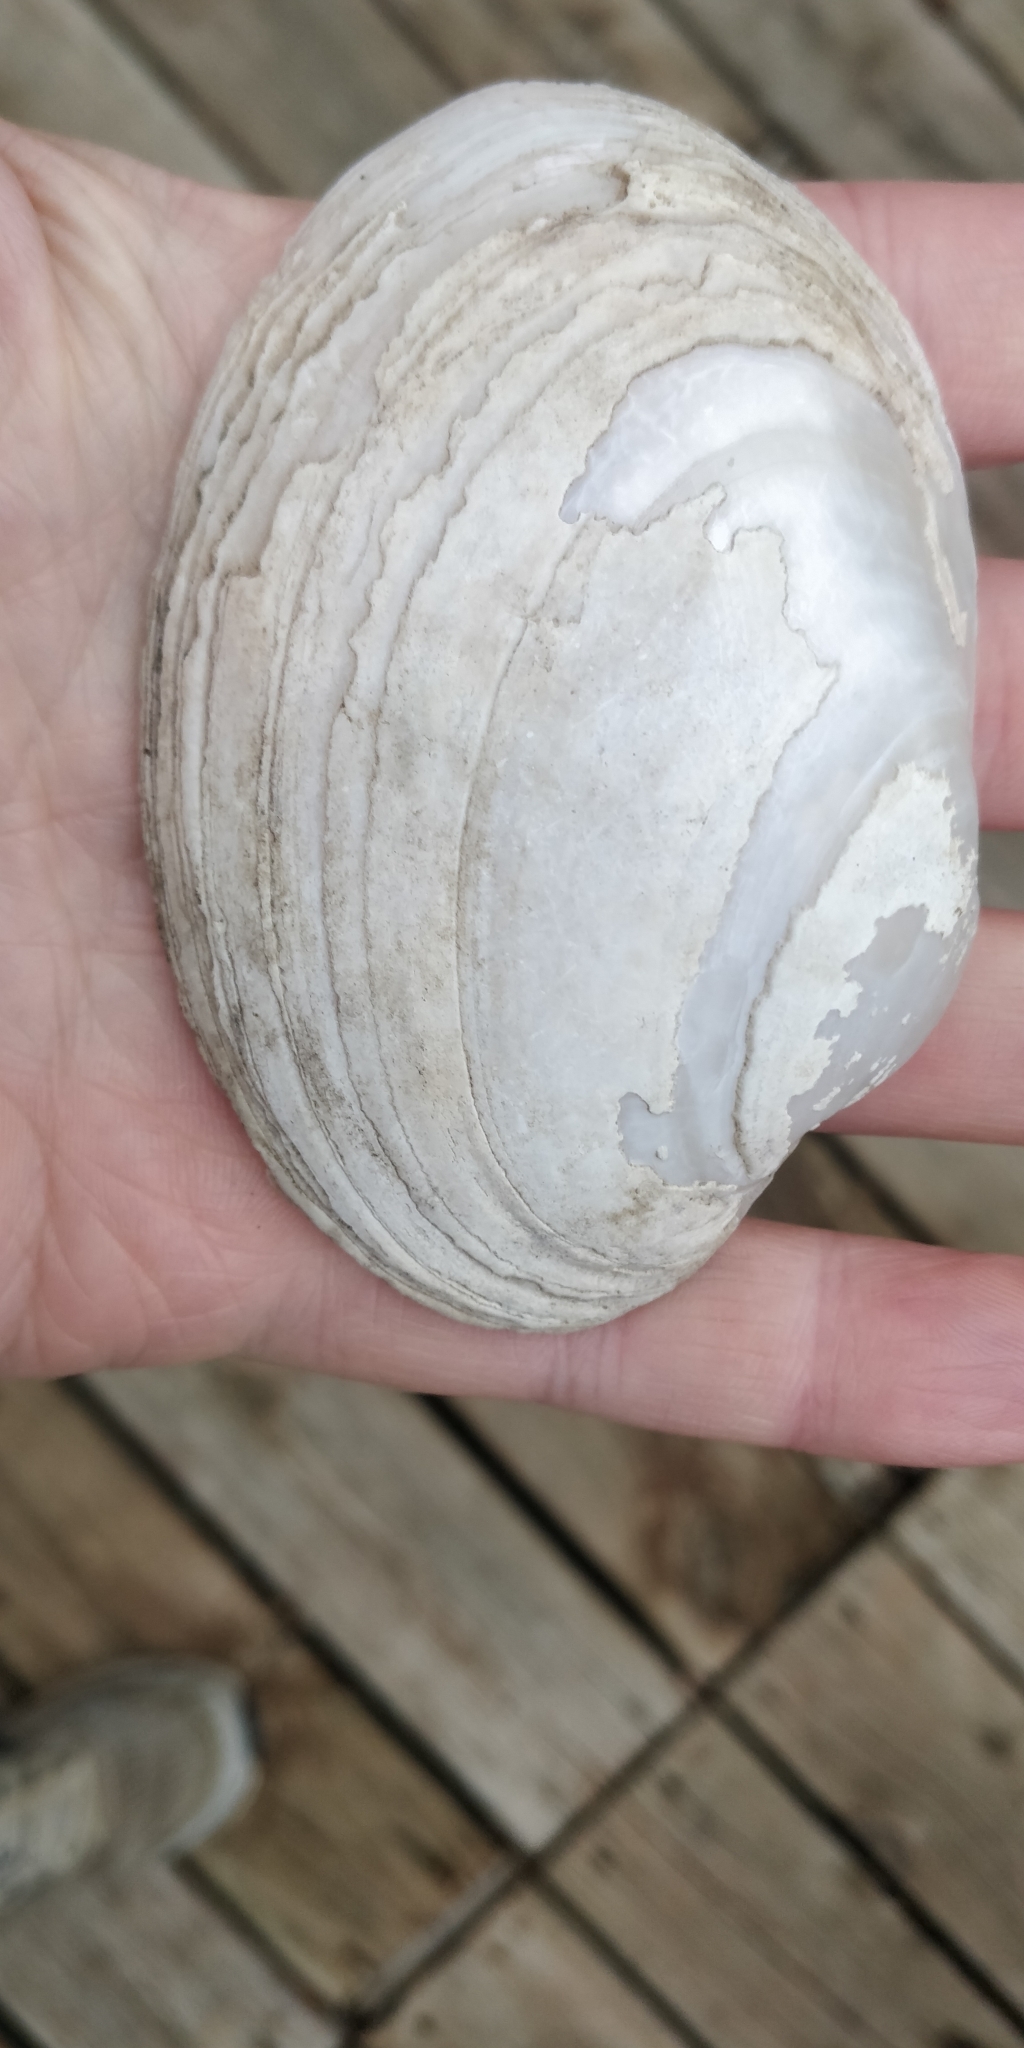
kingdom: Animalia
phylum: Mollusca
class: Bivalvia
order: Unionida
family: Unionidae
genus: Lampsilis
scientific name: Lampsilis cardium
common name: Plain pocketbook
